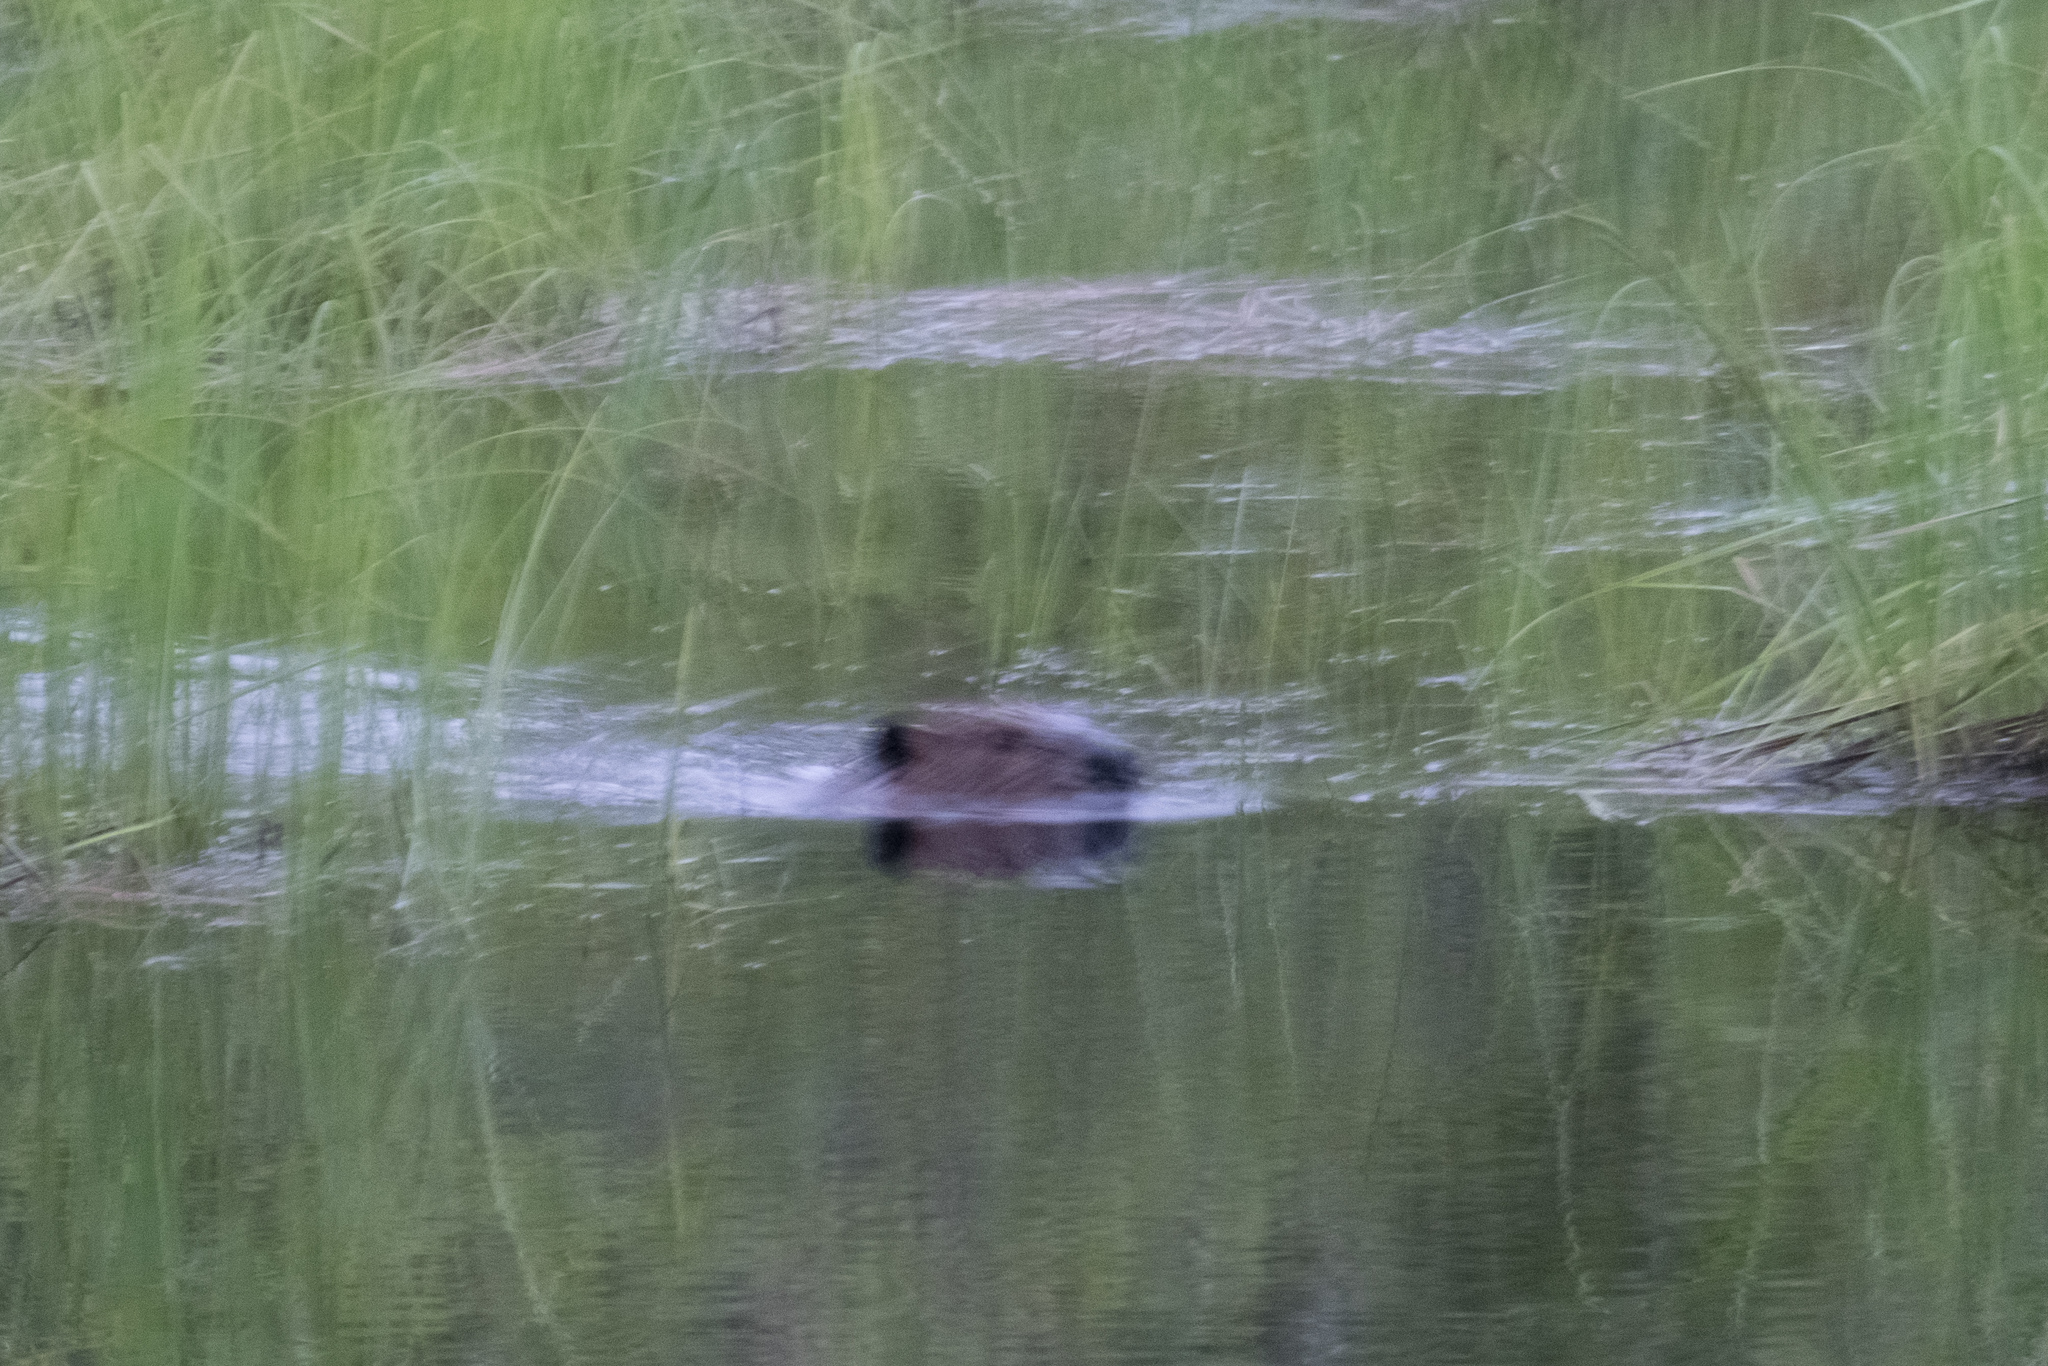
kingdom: Animalia
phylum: Chordata
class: Mammalia
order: Rodentia
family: Castoridae
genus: Castor
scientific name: Castor canadensis
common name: American beaver
